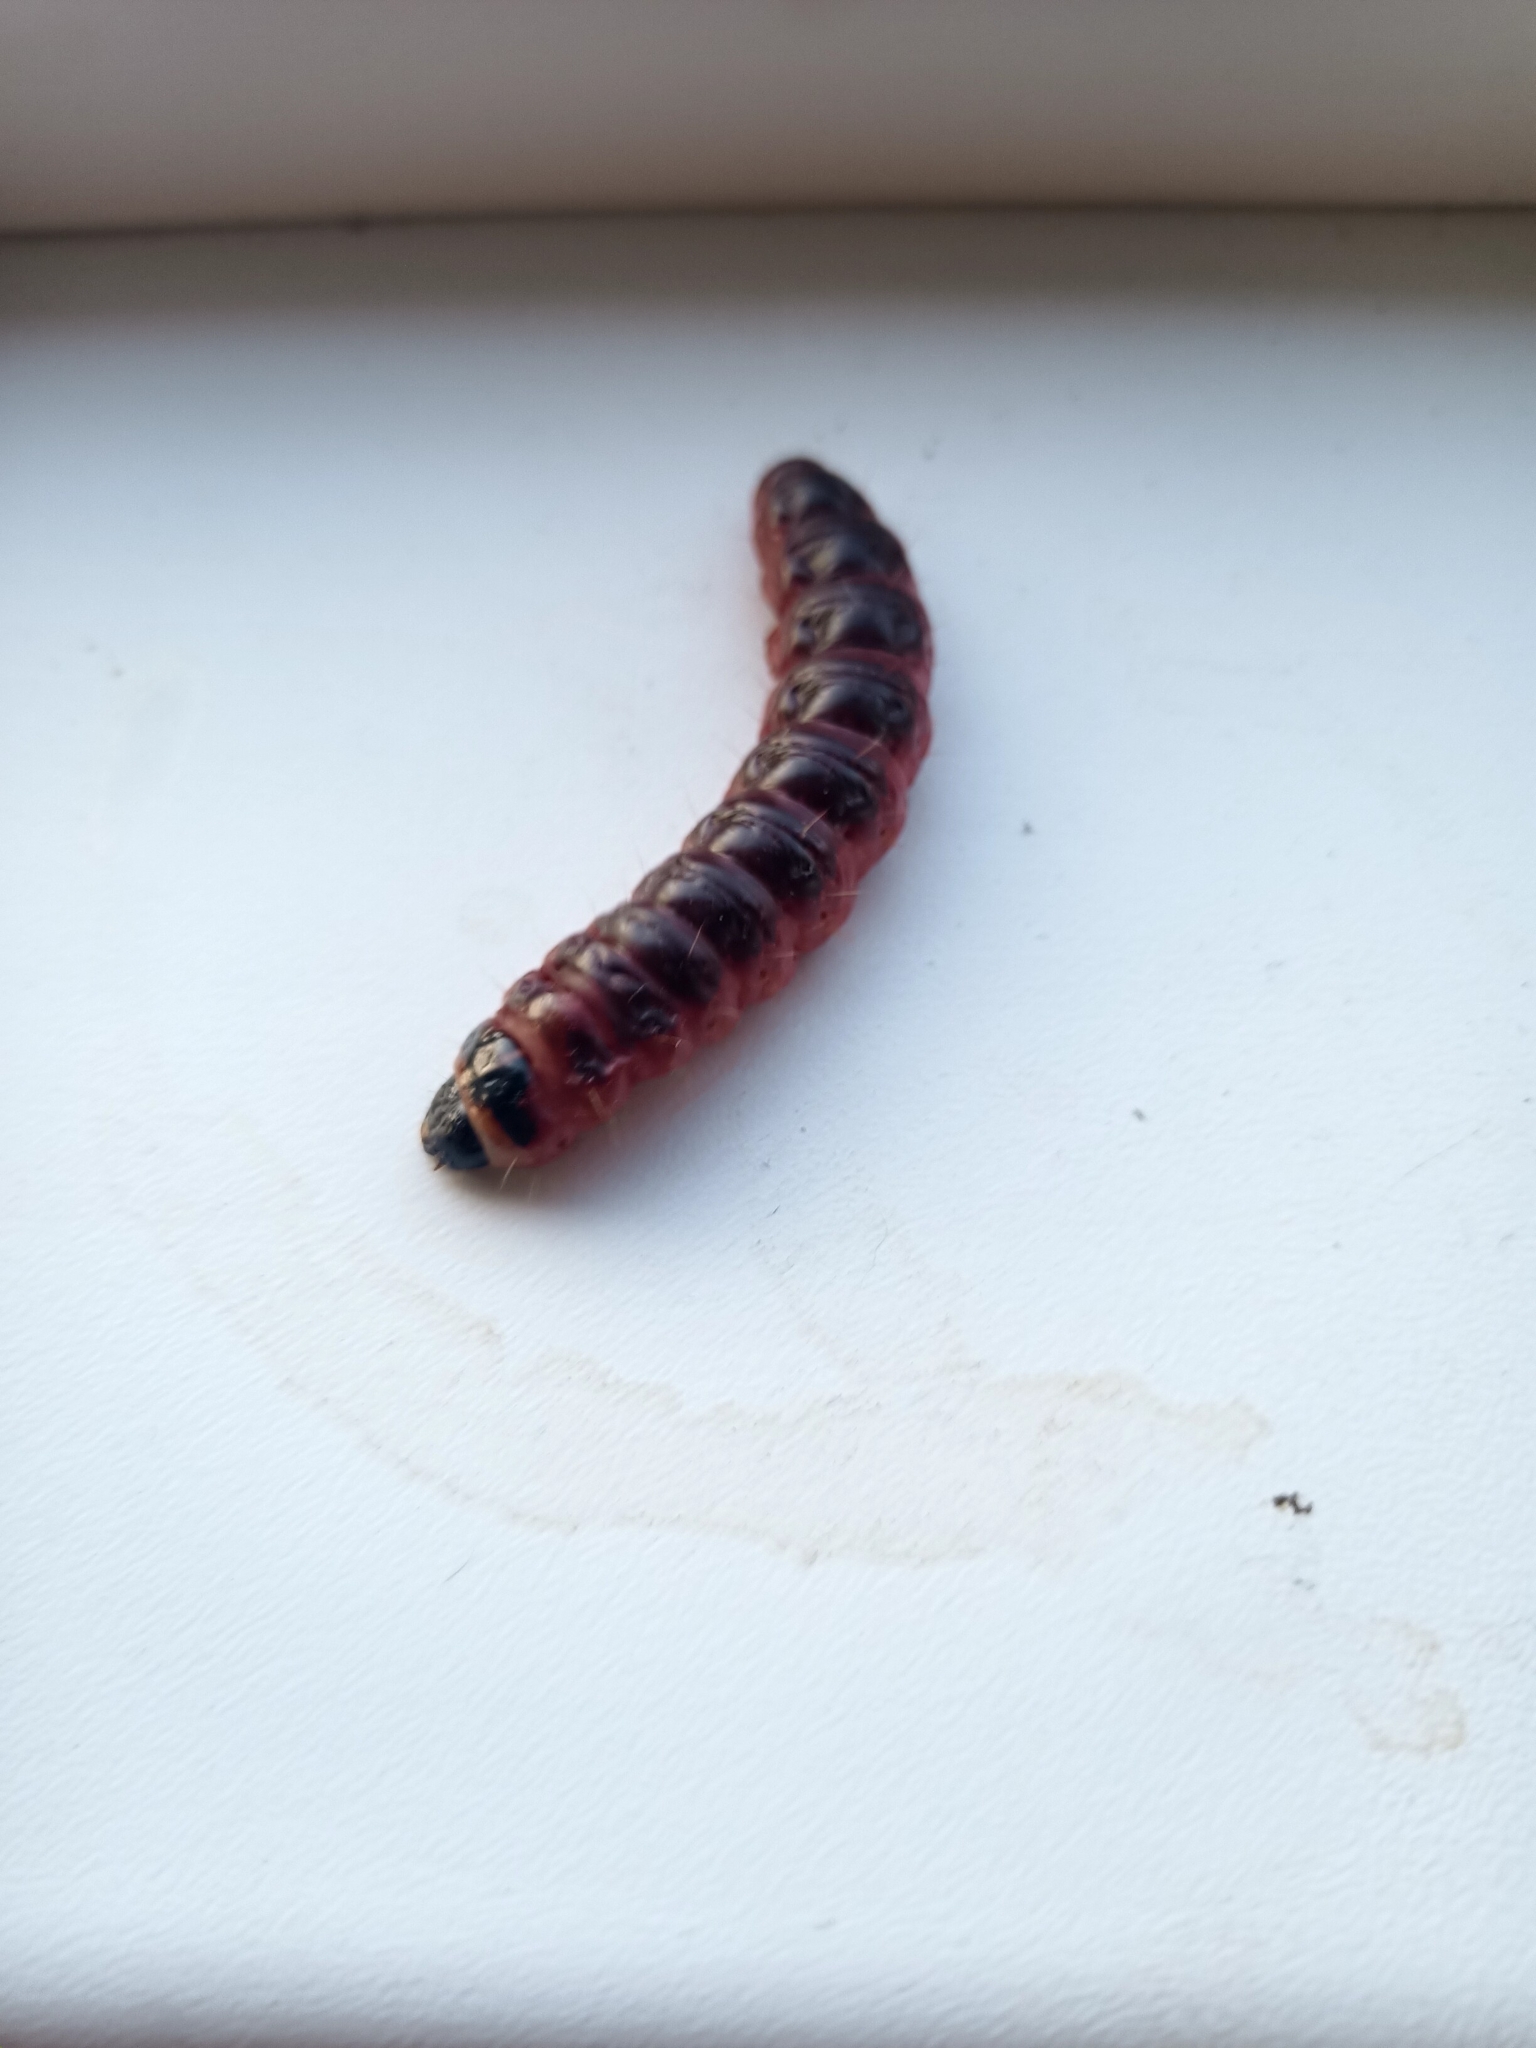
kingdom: Animalia
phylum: Arthropoda
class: Insecta
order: Lepidoptera
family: Cossidae
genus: Cossus
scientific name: Cossus cossus
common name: Goat moth
